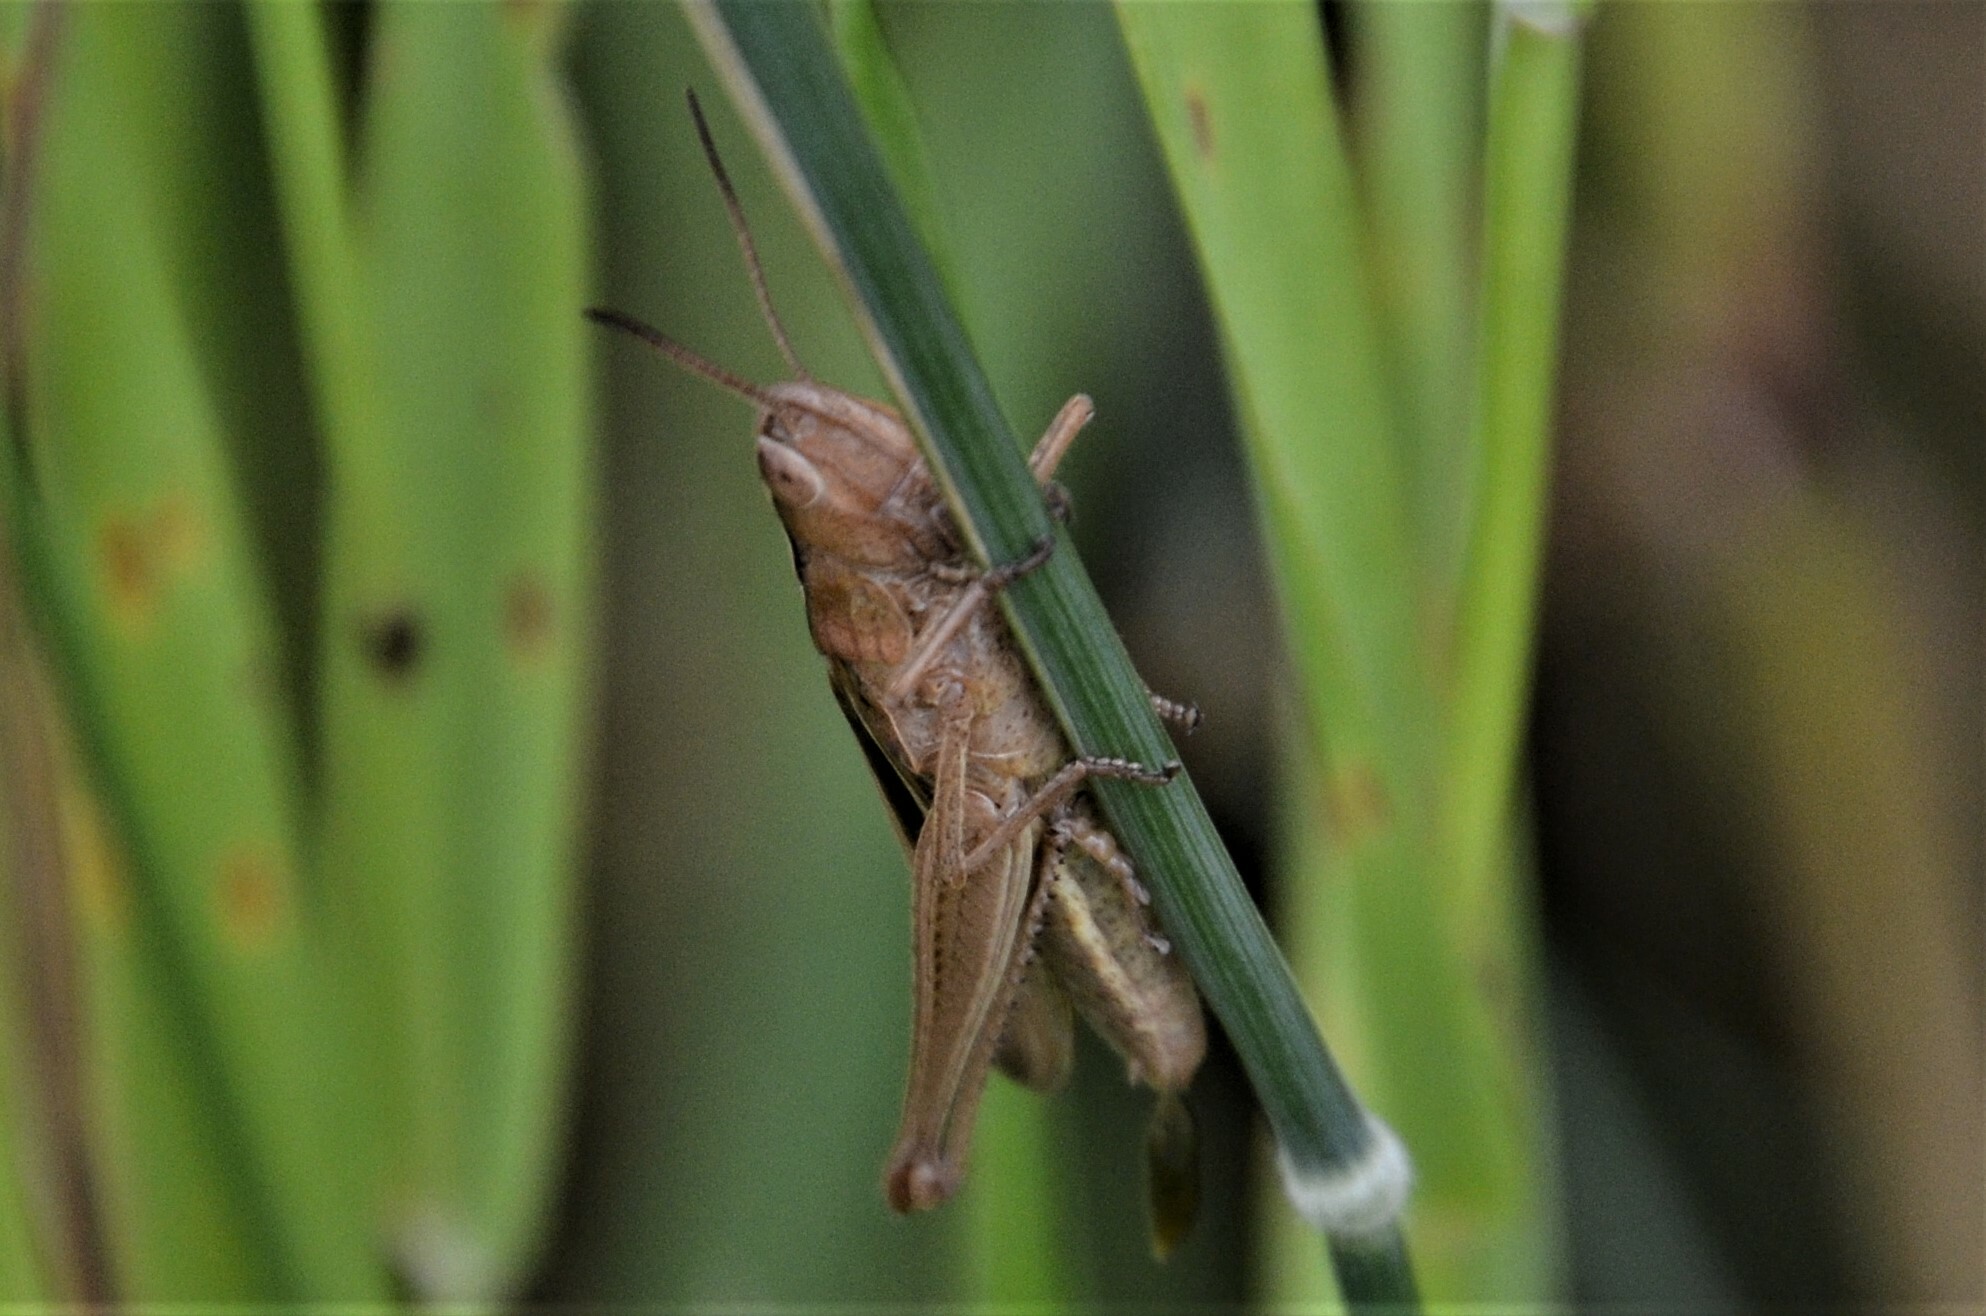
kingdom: Animalia
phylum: Arthropoda
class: Insecta
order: Orthoptera
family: Acrididae
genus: Chorthippus
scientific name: Chorthippus albomarginatus
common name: Lesser marsh grasshopper
